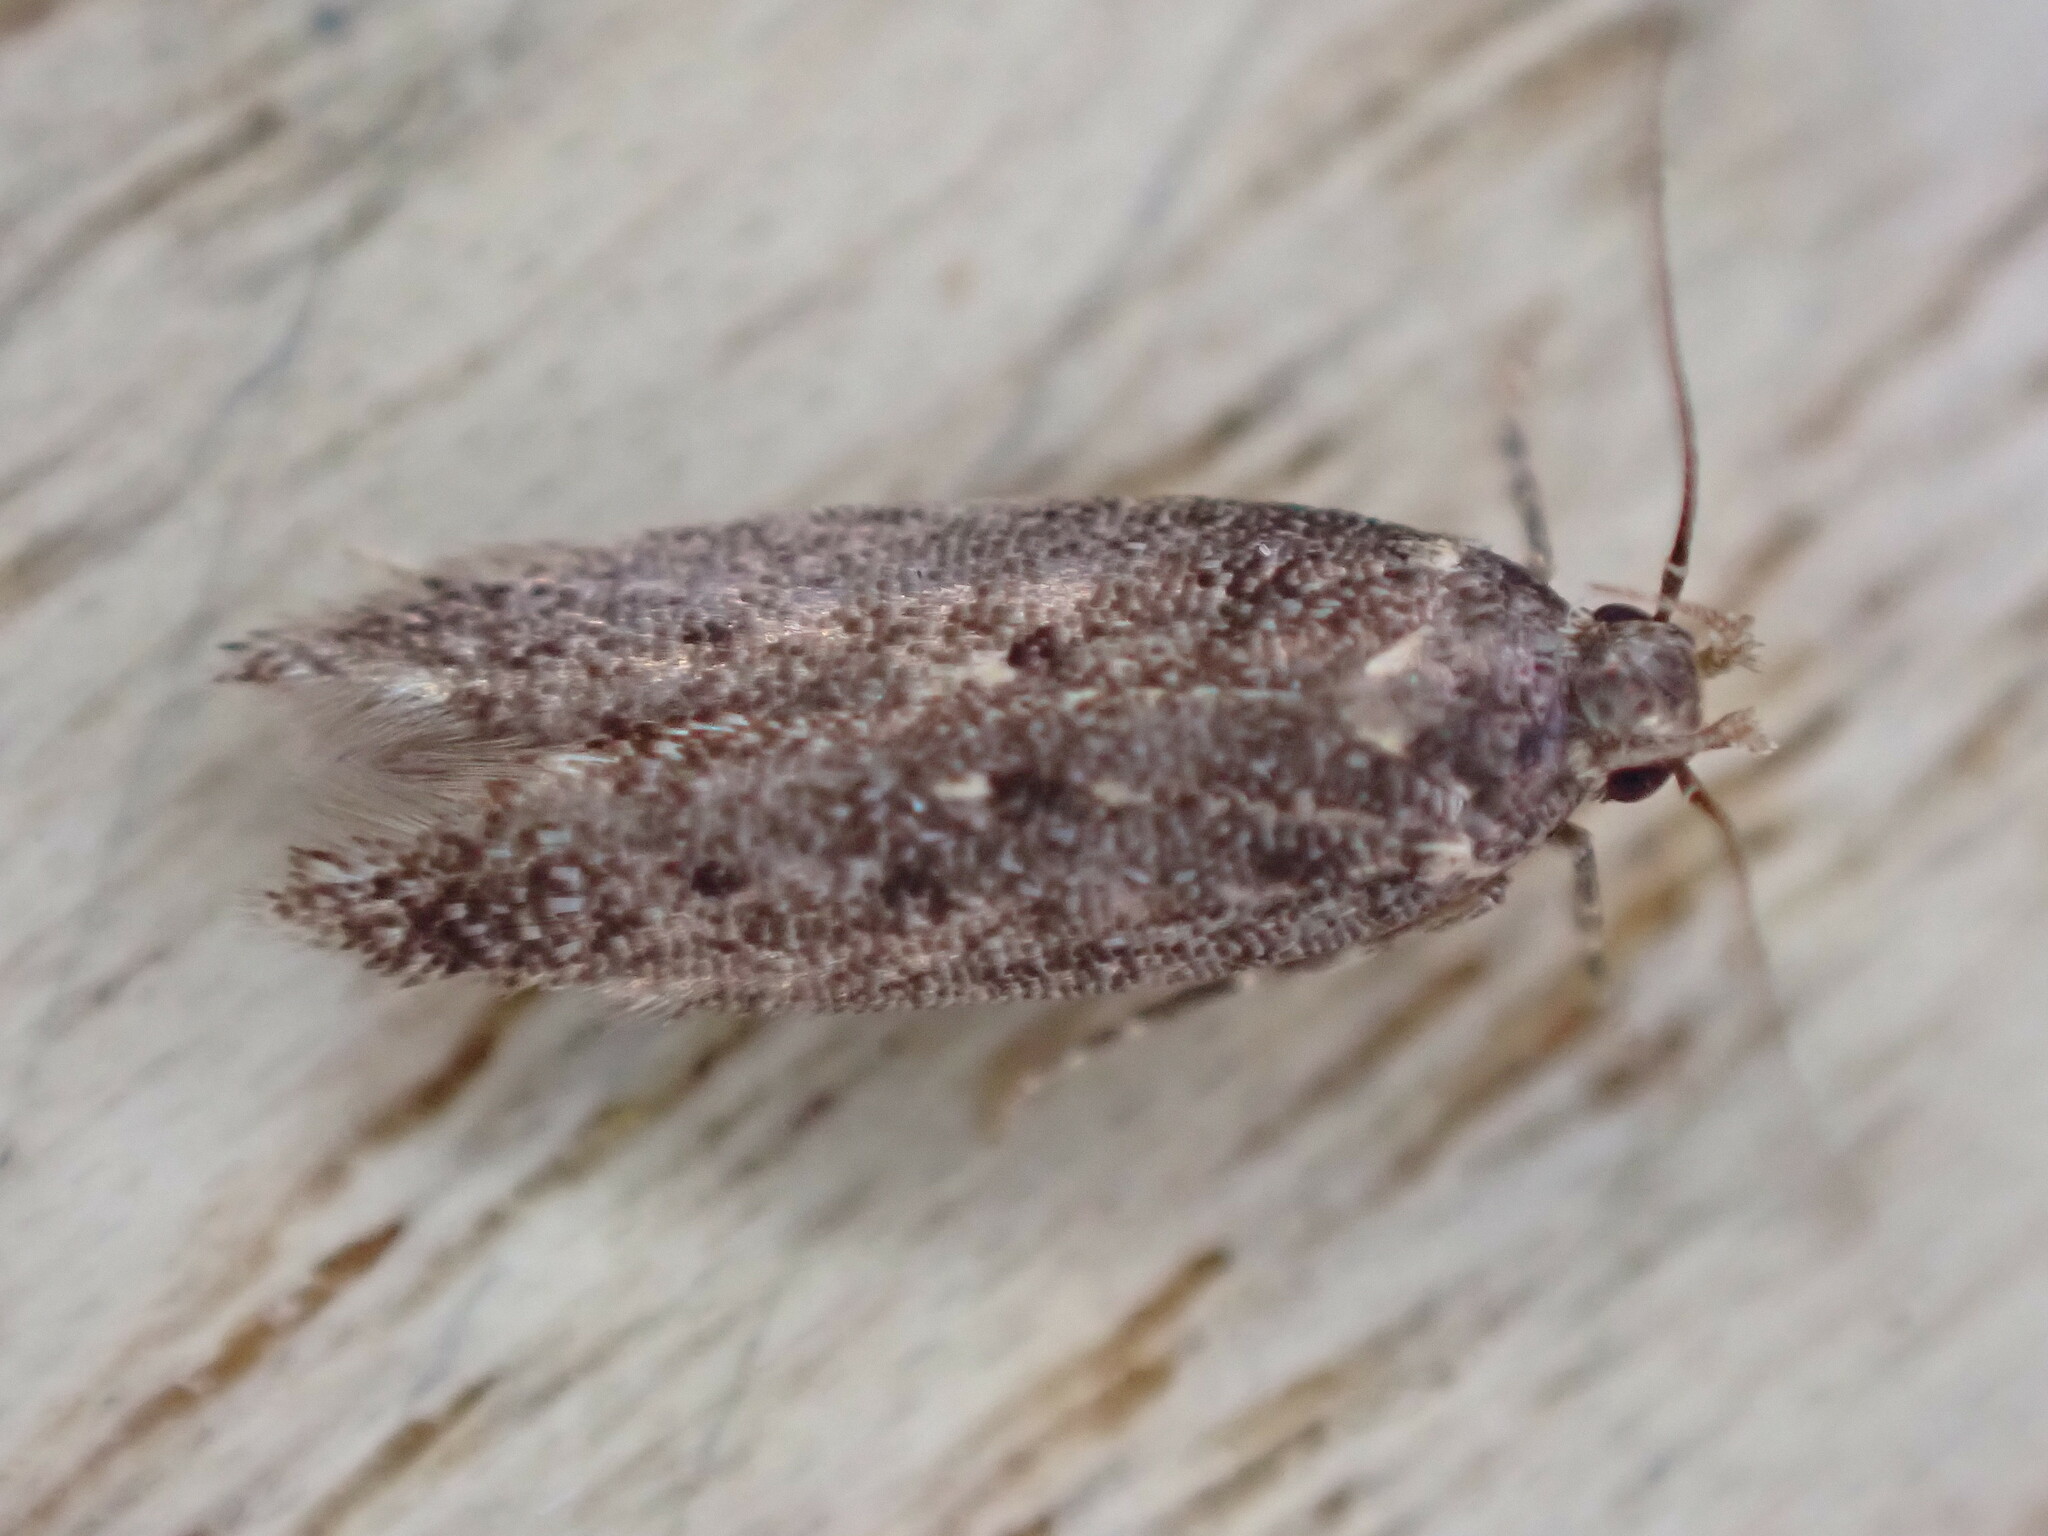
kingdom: Animalia
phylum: Arthropoda
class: Insecta
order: Lepidoptera
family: Gelechiidae
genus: Bryotropha
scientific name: Bryotropha affinis
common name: Dark groundling
